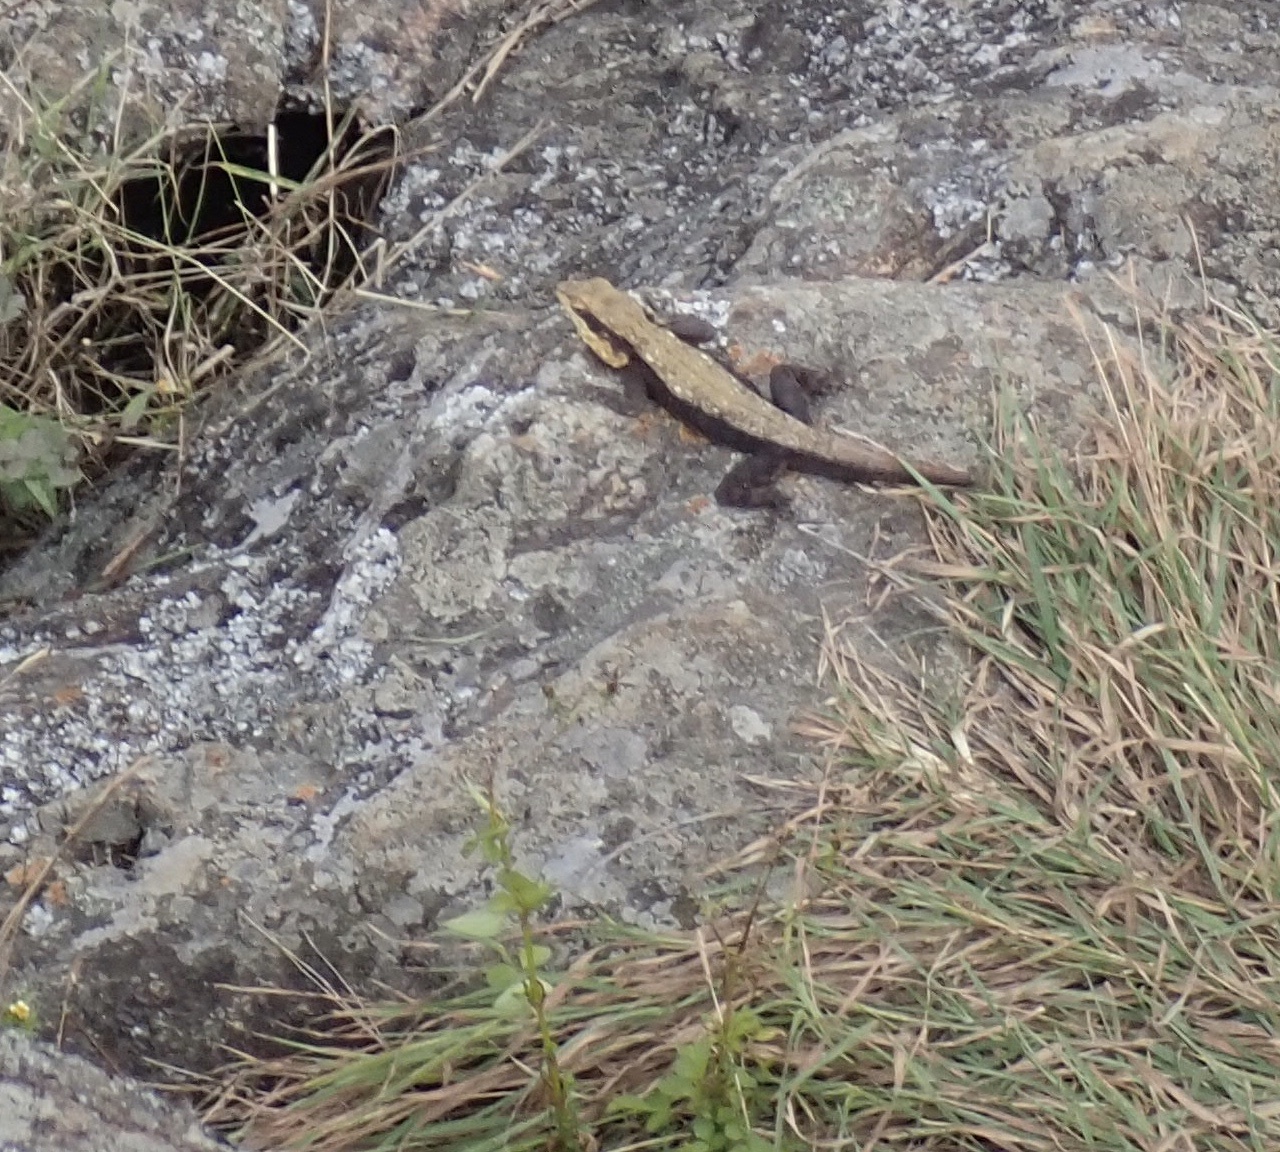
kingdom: Animalia
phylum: Chordata
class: Squamata
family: Agamidae
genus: Psammophilus
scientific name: Psammophilus dorsalis
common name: South indian rock agama
